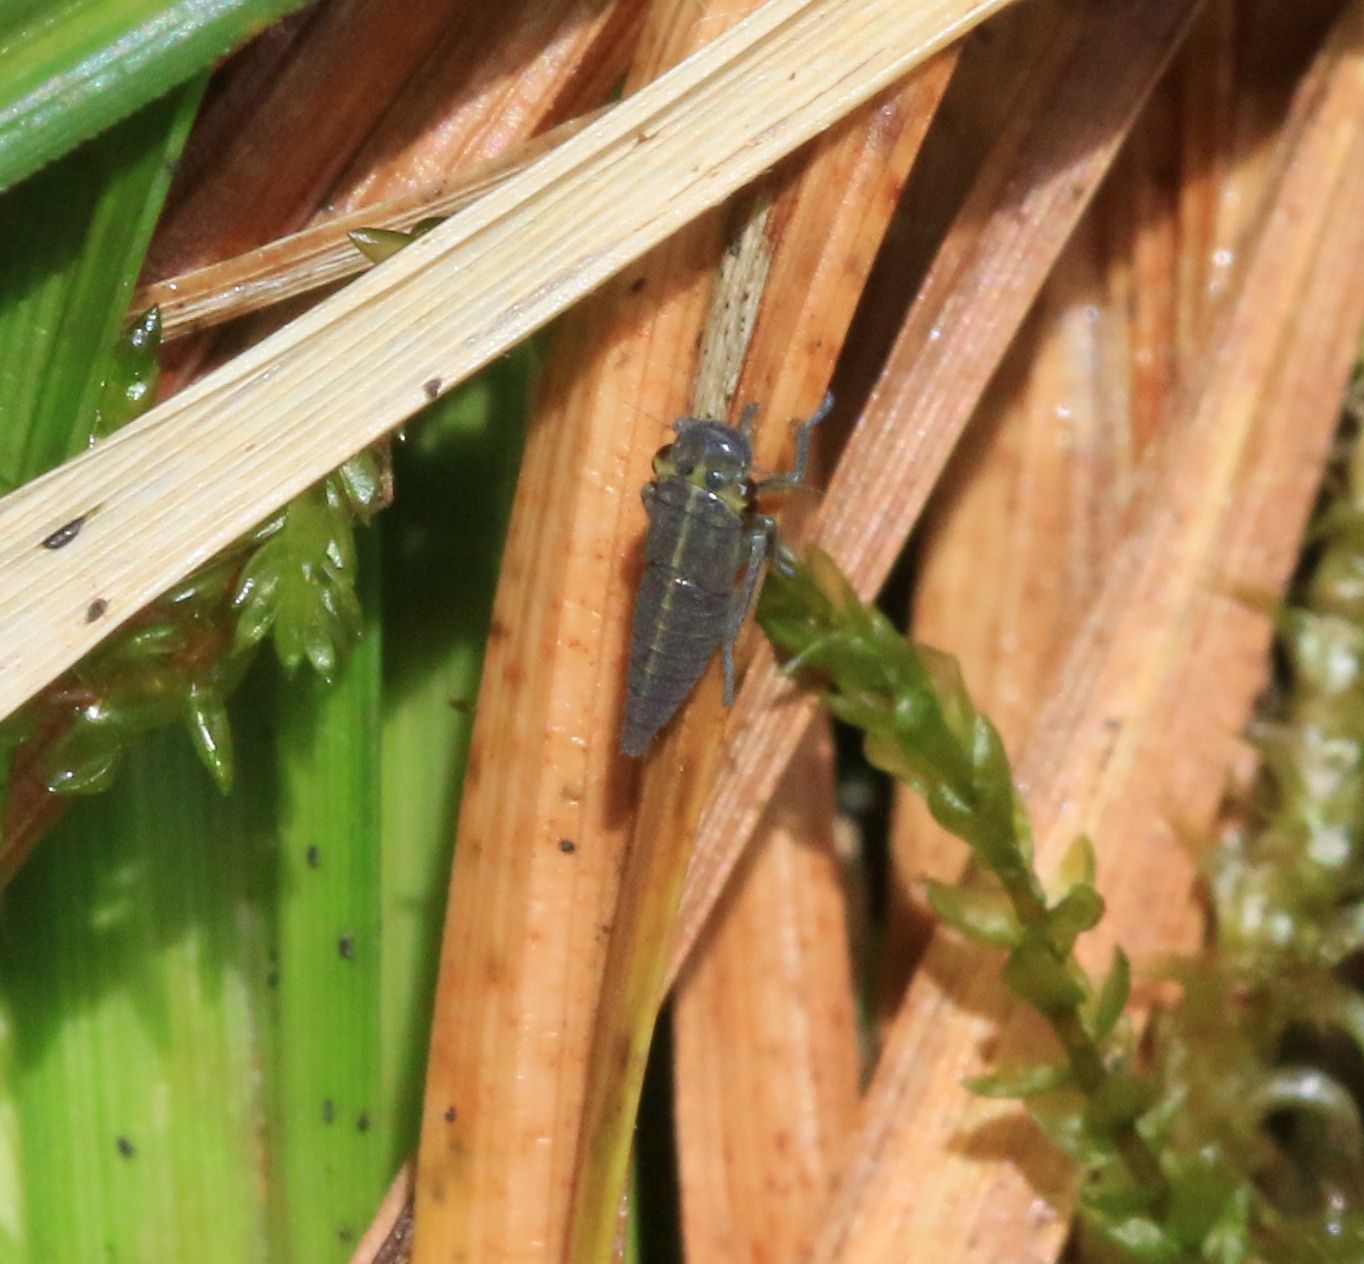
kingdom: Animalia
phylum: Arthropoda
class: Insecta
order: Hemiptera
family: Cicadellidae
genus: Cicadella
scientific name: Cicadella viridis
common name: Leafhopper
